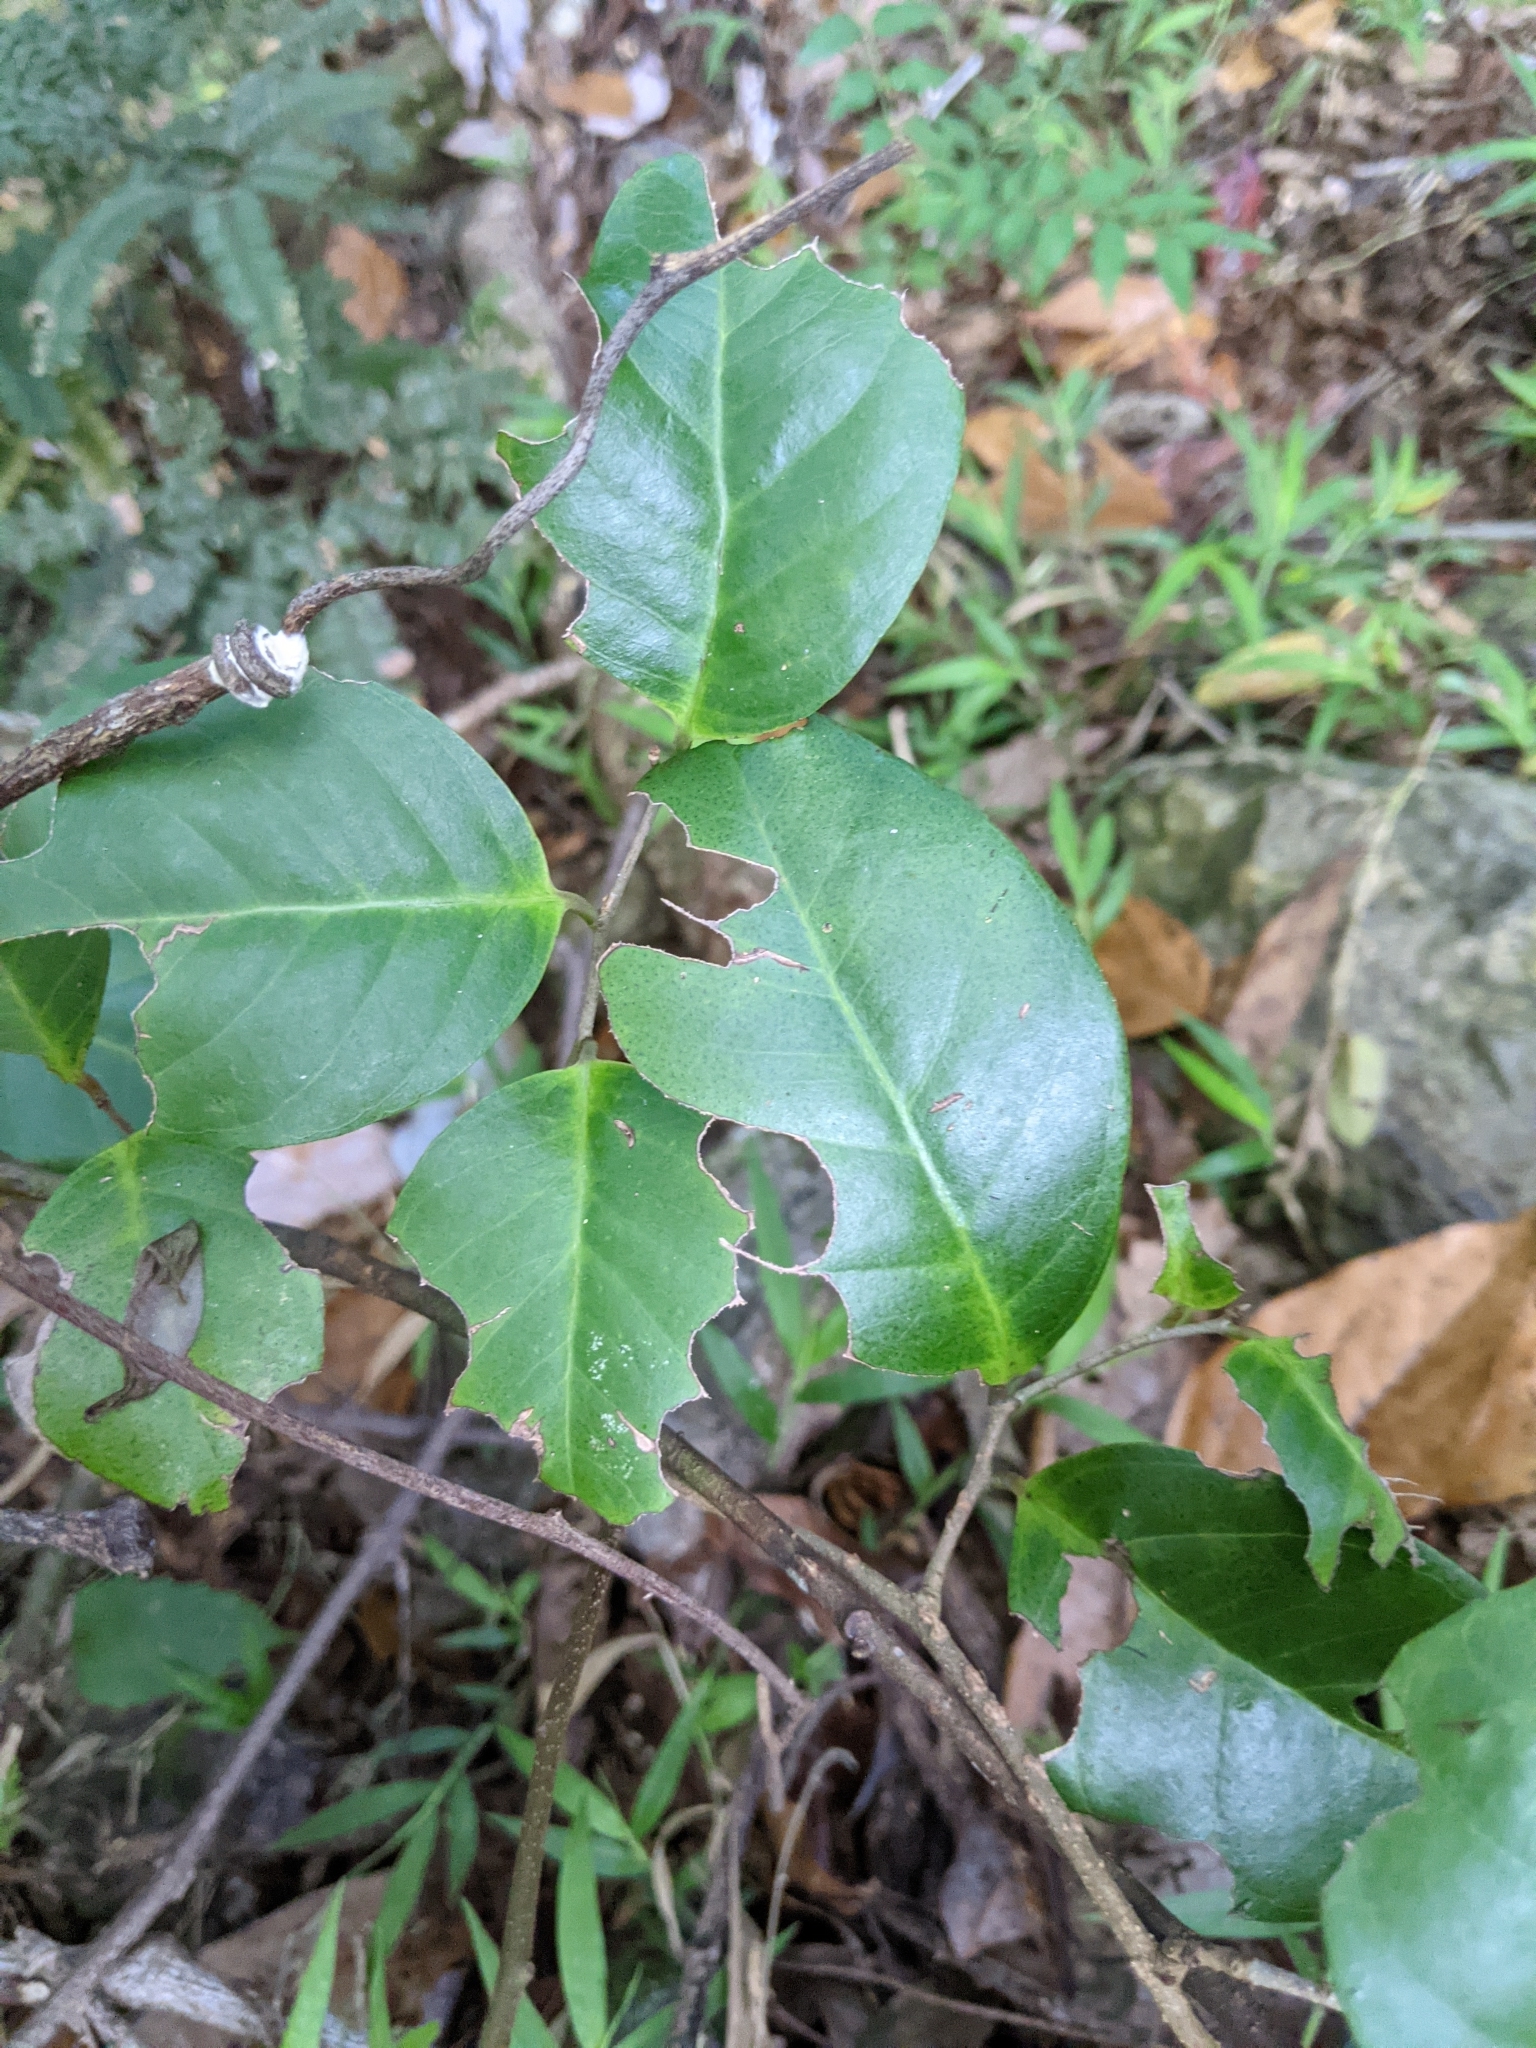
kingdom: Plantae
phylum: Tracheophyta
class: Magnoliopsida
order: Ericales
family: Primulaceae
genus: Embelia
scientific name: Embelia australiana
